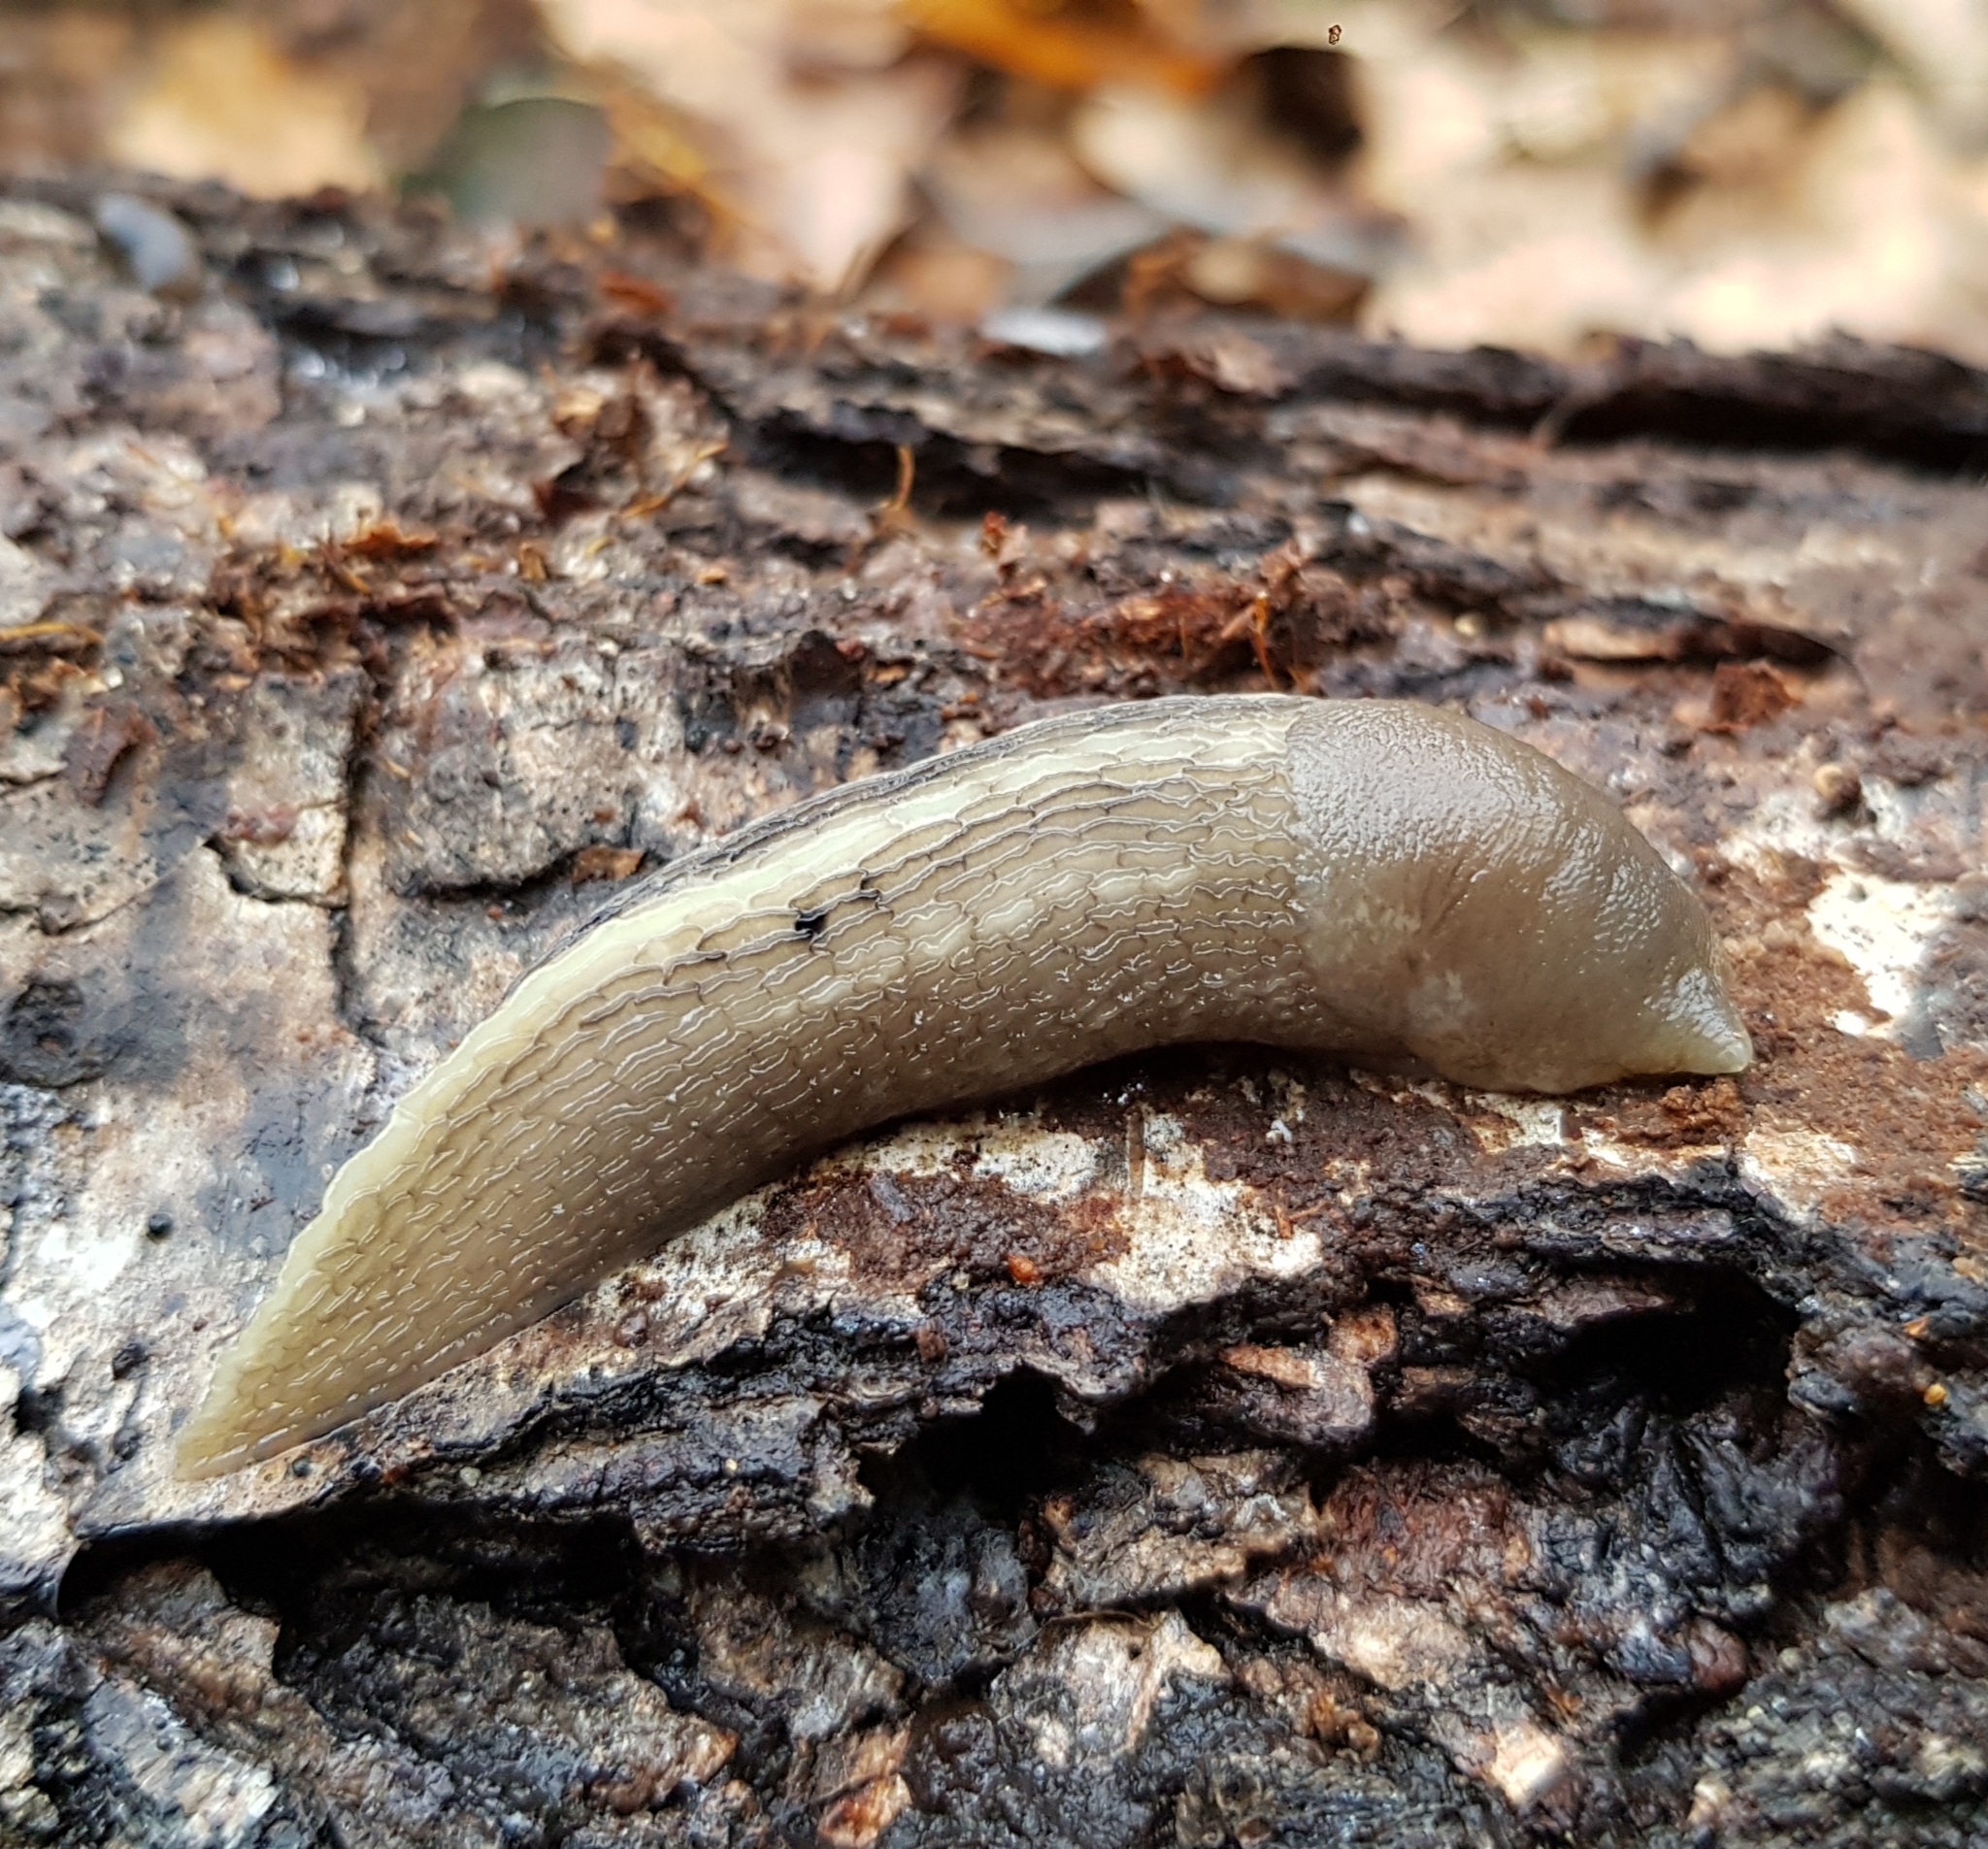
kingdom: Animalia
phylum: Mollusca
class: Gastropoda
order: Stylommatophora
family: Limacidae
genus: Limax
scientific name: Limax cinereoniger
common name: Ash-black slug
